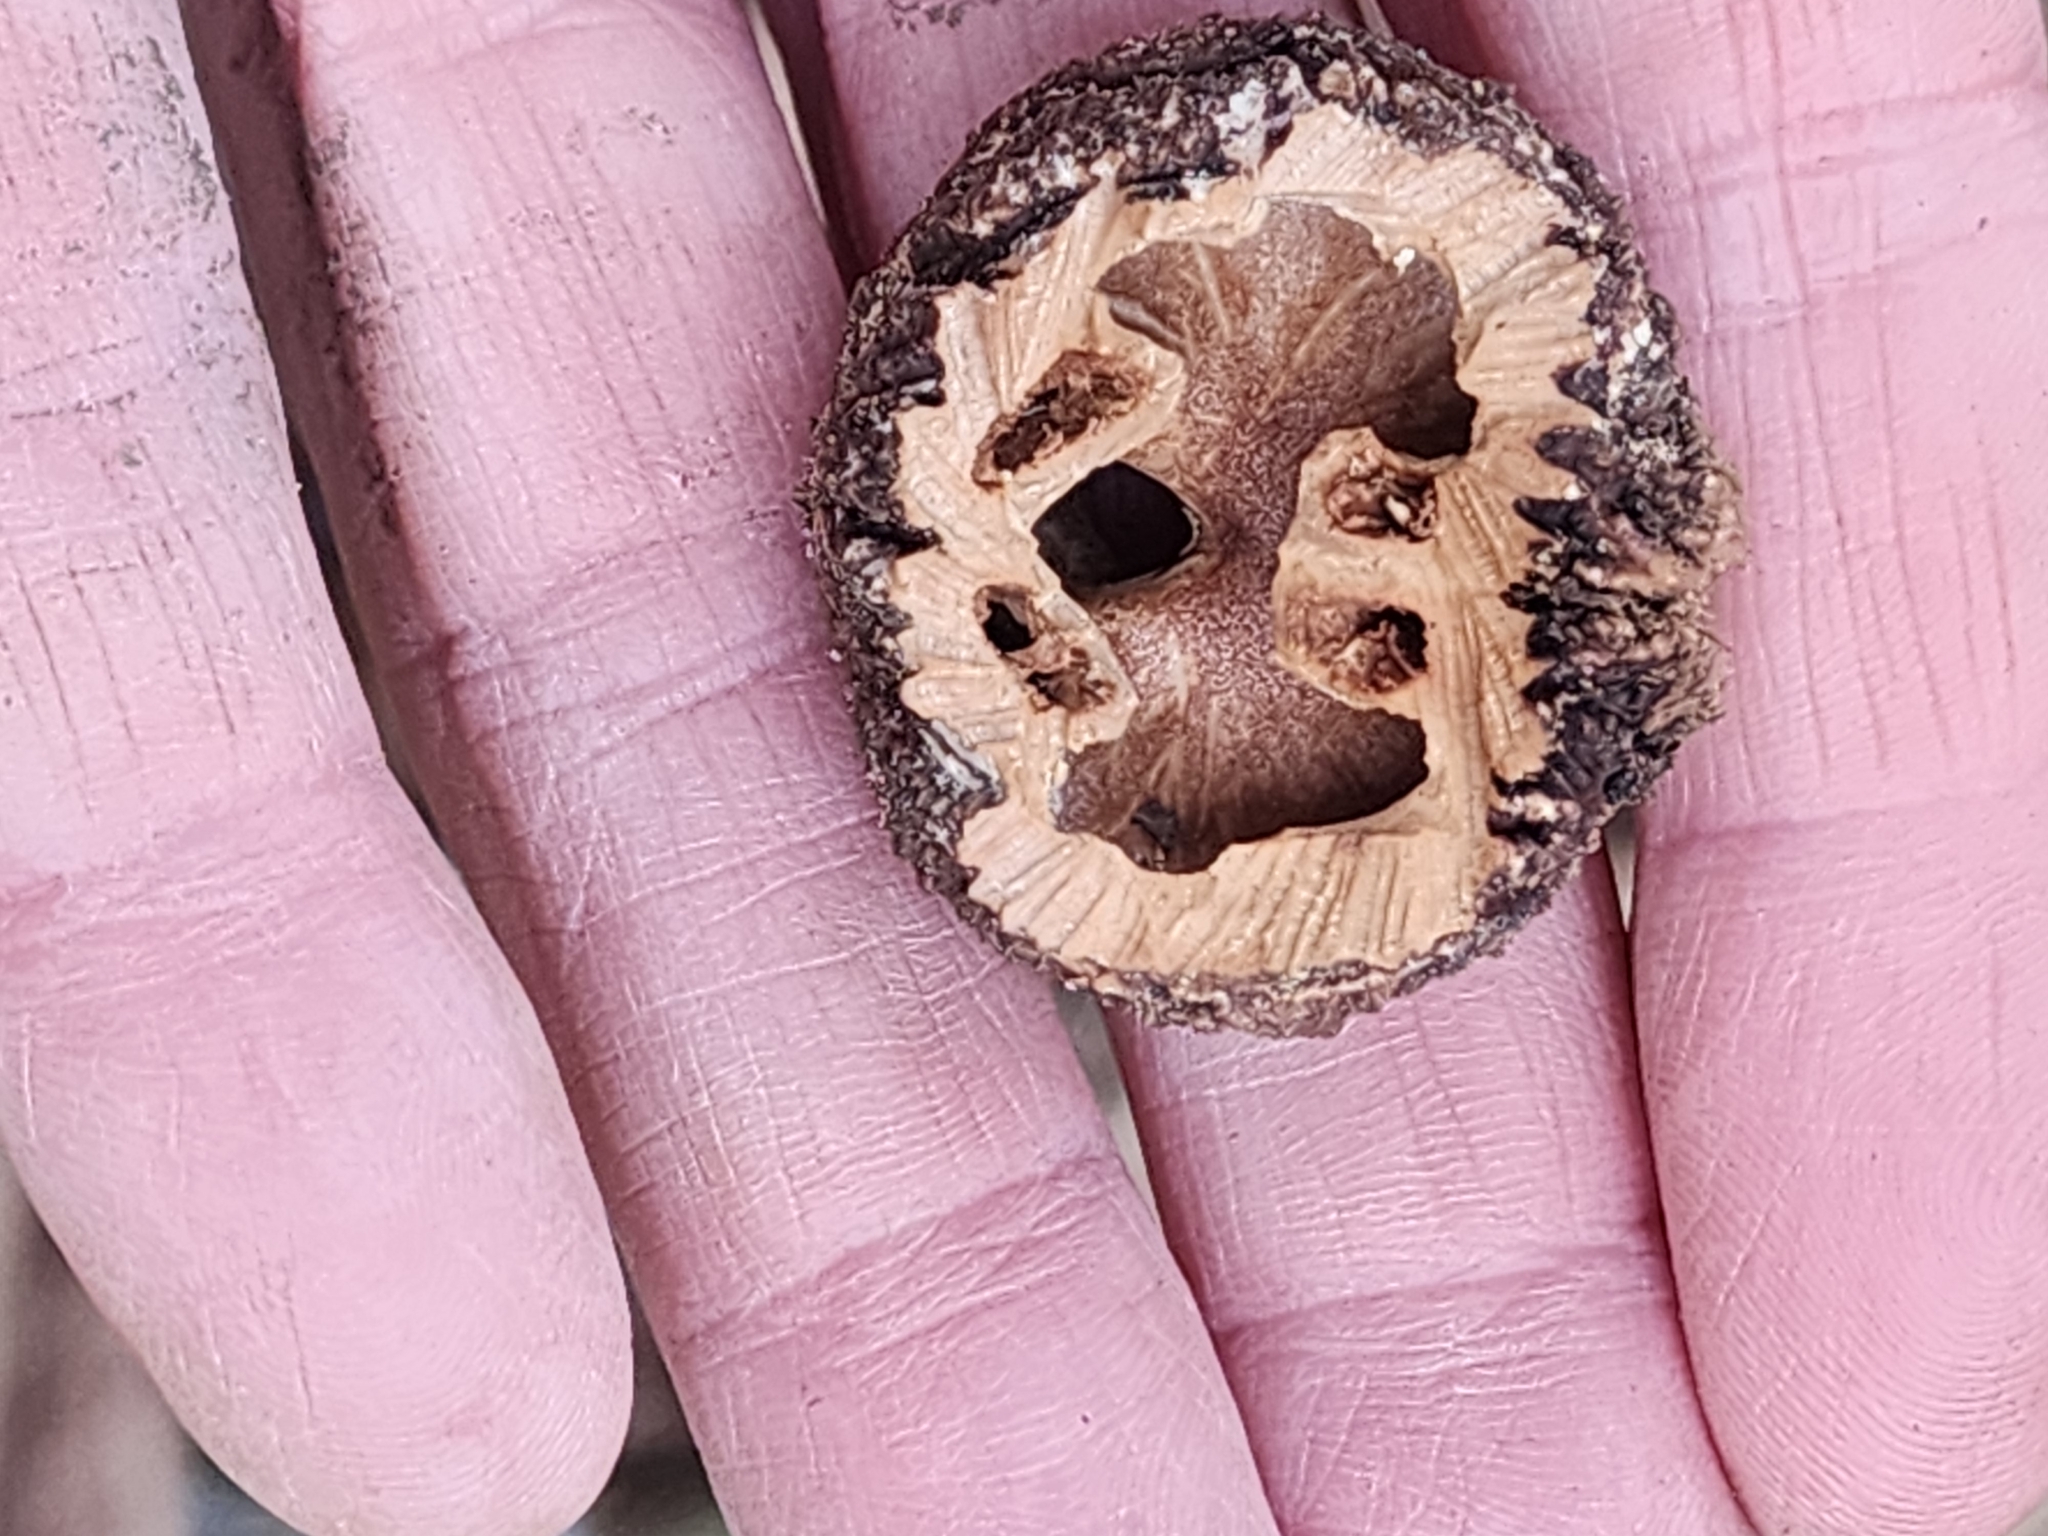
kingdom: Plantae
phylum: Tracheophyta
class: Magnoliopsida
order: Fagales
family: Juglandaceae
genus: Juglans
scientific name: Juglans nigra
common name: Black walnut
